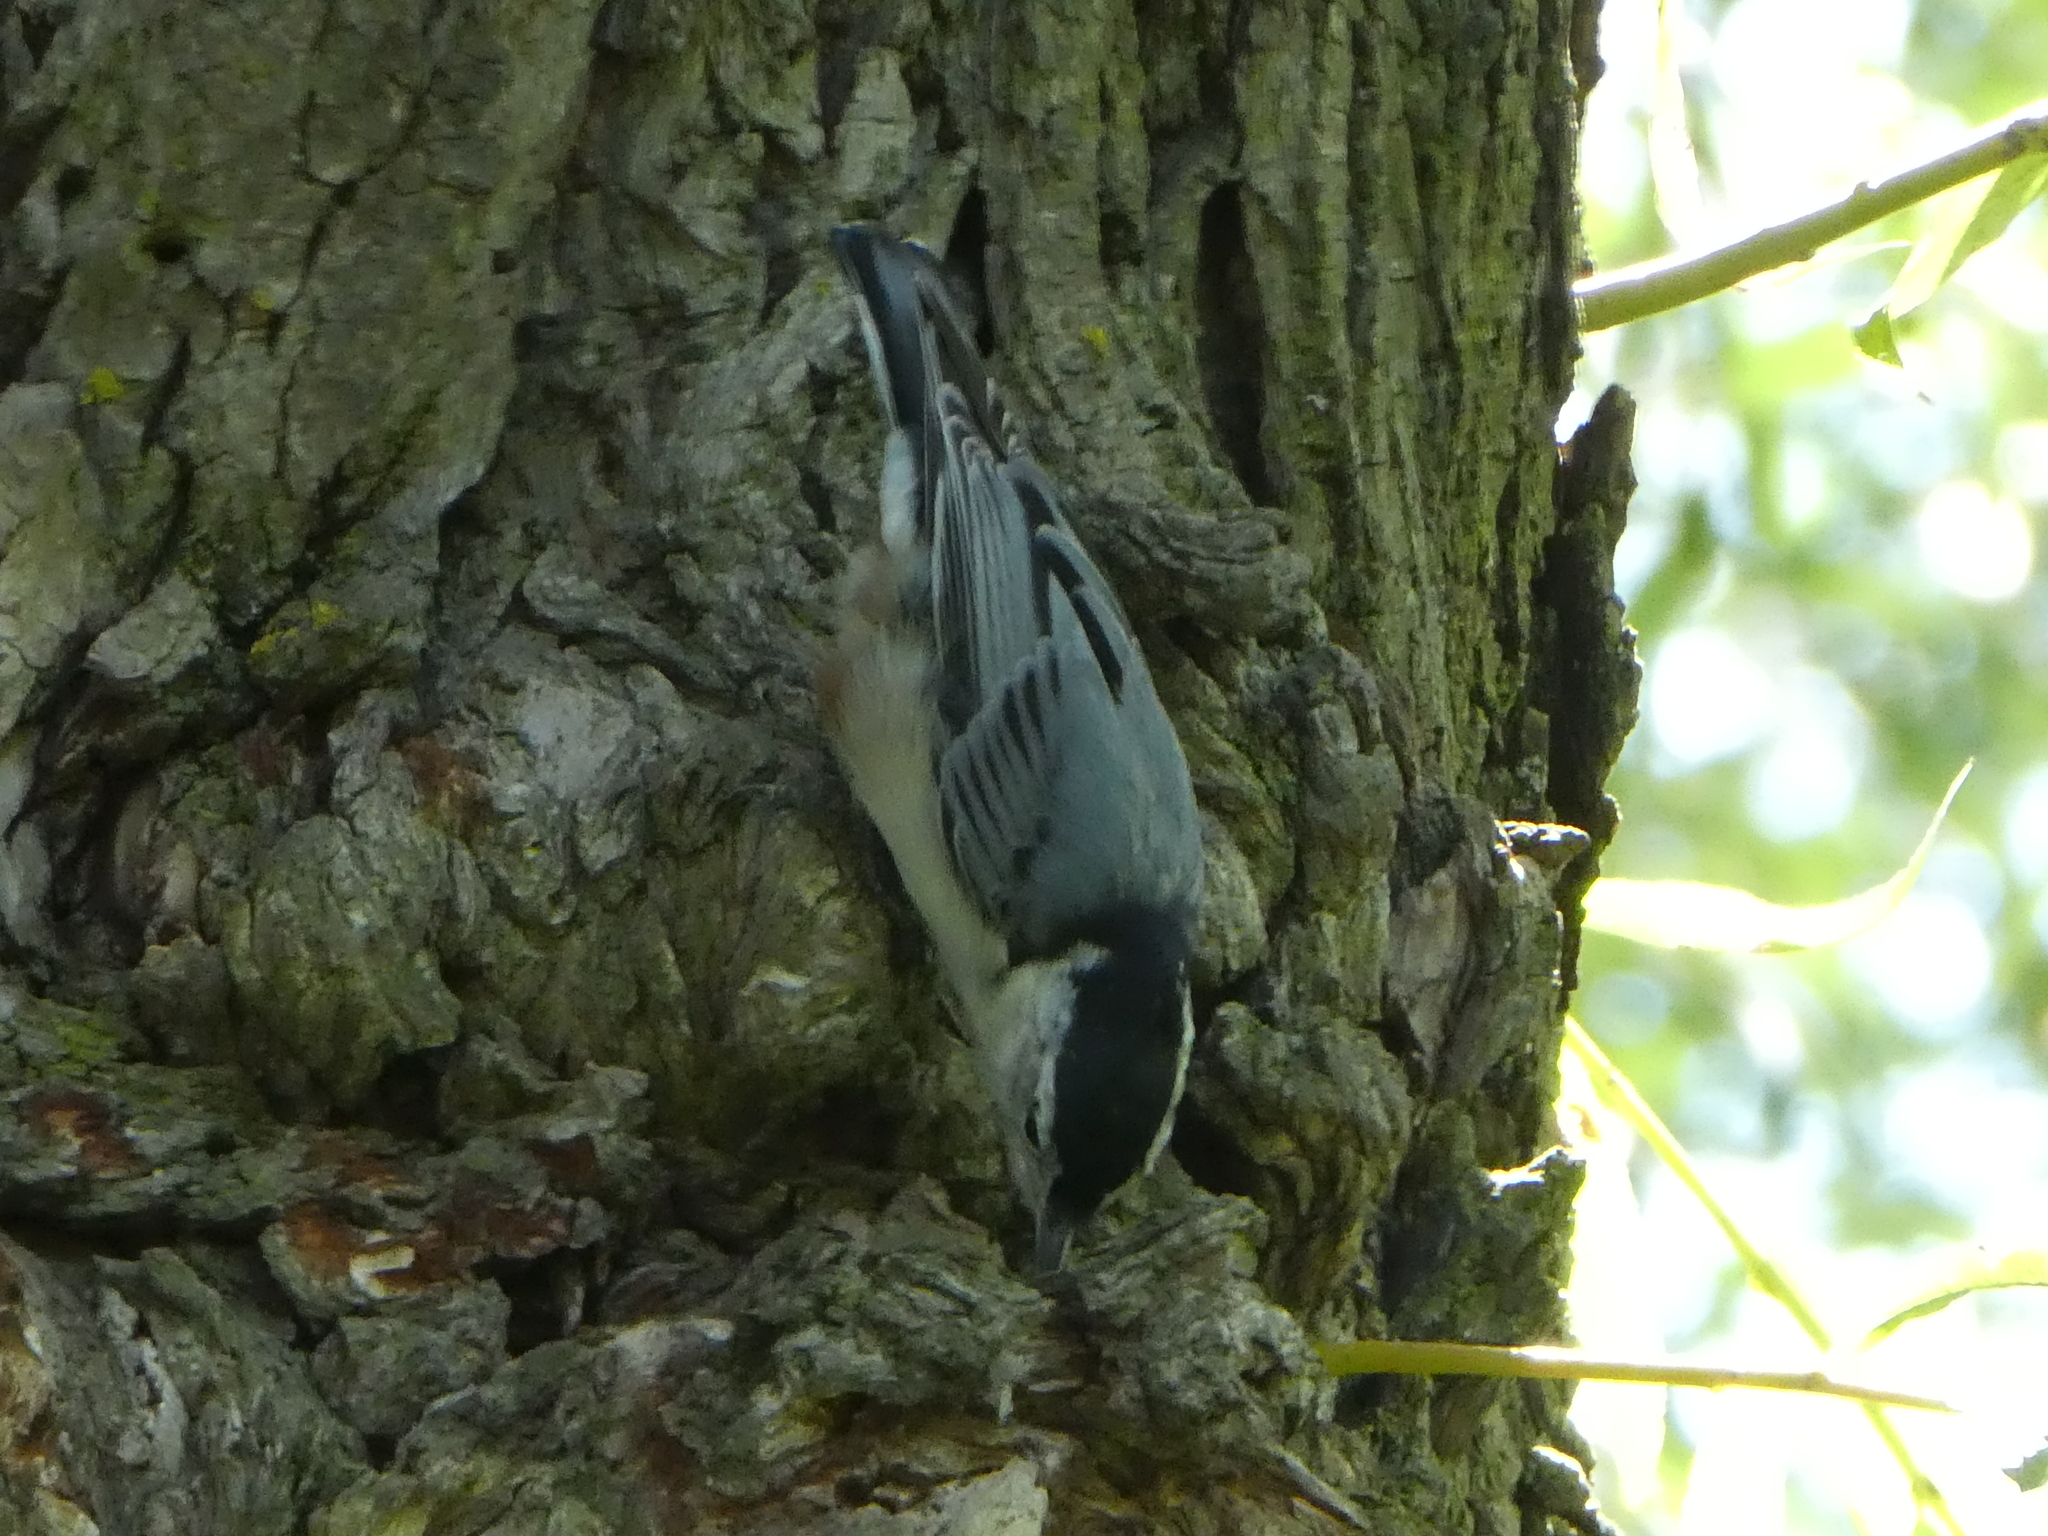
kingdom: Animalia
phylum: Chordata
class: Aves
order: Passeriformes
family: Sittidae
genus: Sitta
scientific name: Sitta carolinensis
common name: White-breasted nuthatch
